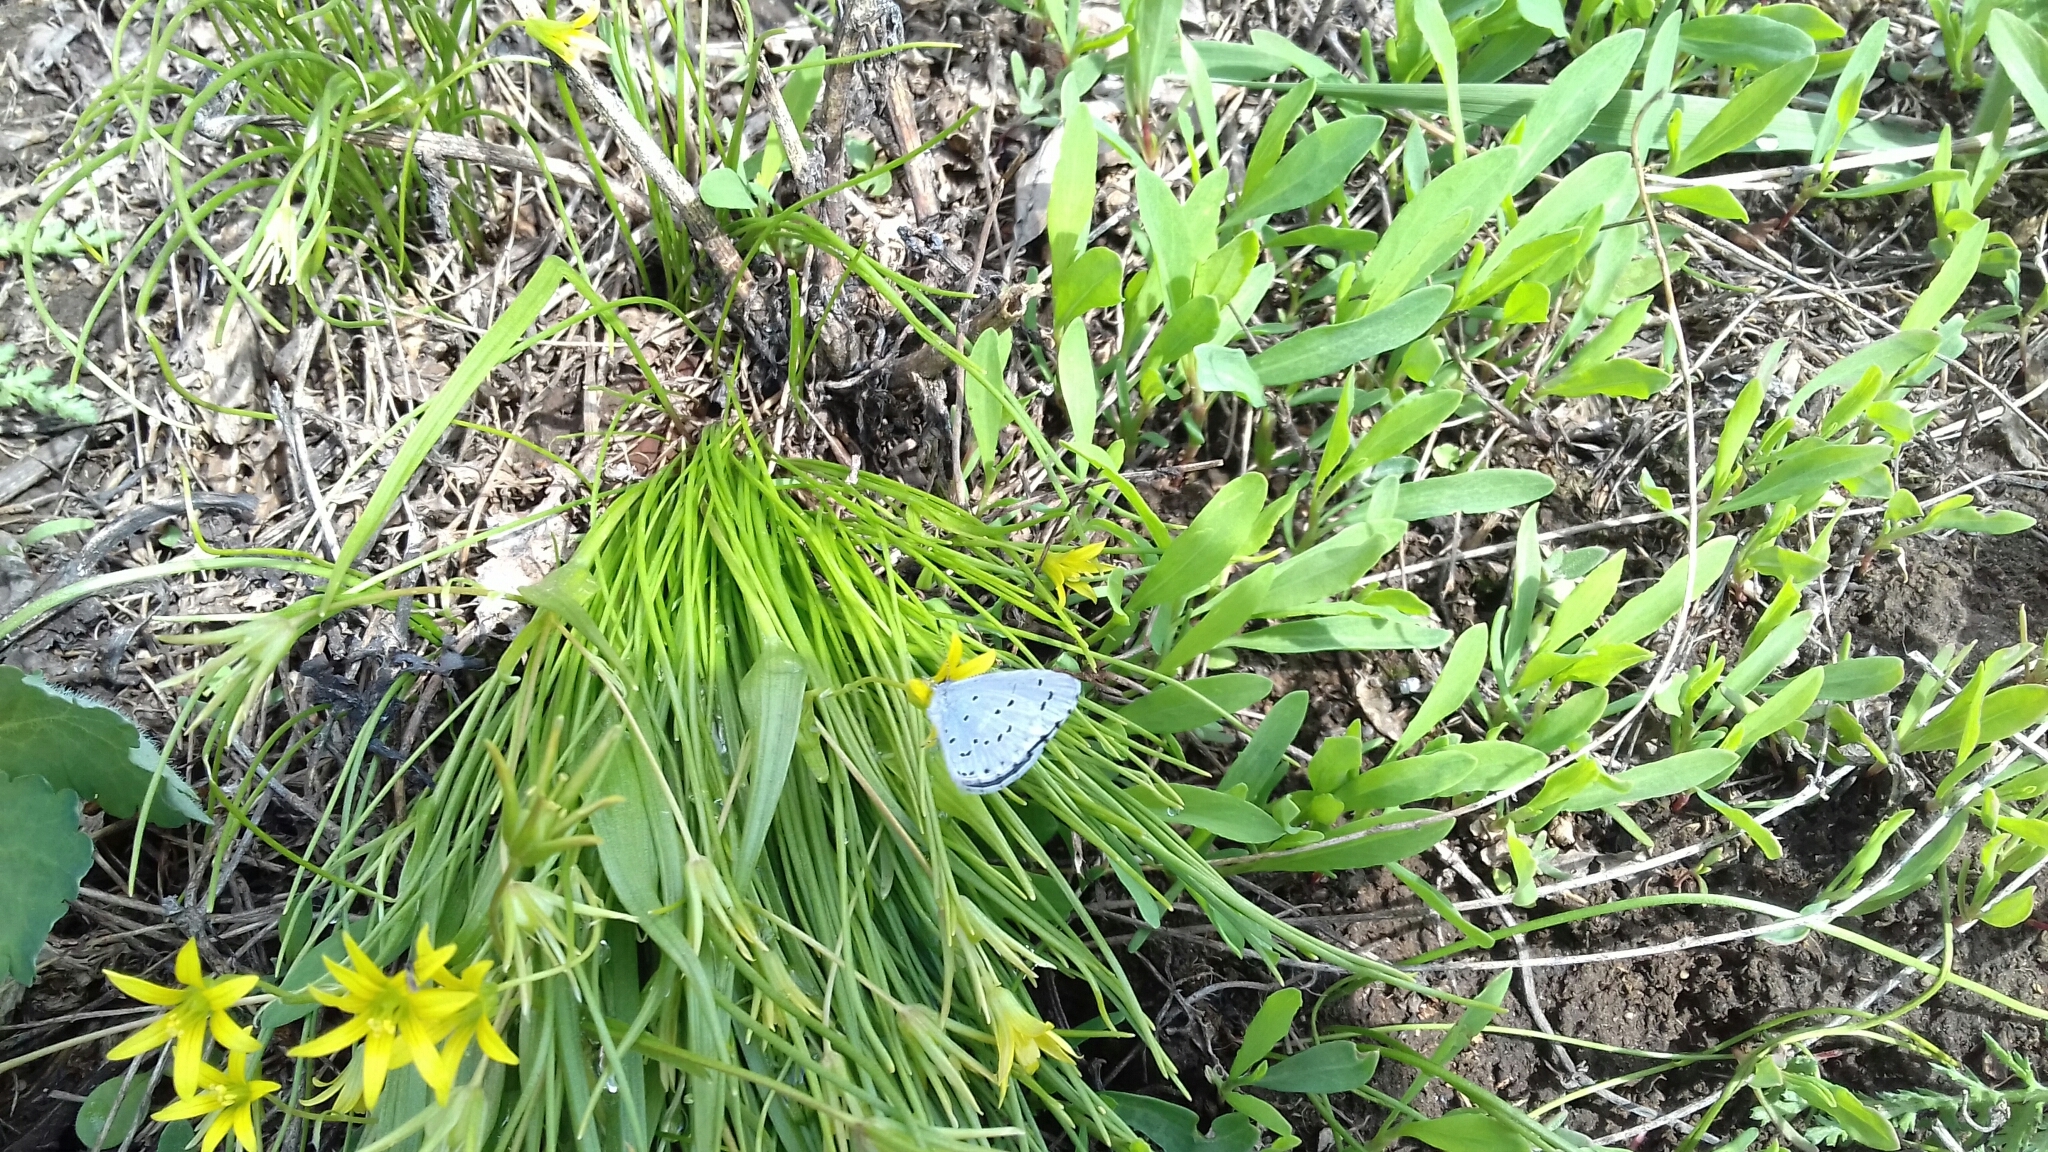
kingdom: Animalia
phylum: Arthropoda
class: Insecta
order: Lepidoptera
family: Lycaenidae
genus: Celastrina
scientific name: Celastrina argiolus
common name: Holly blue
